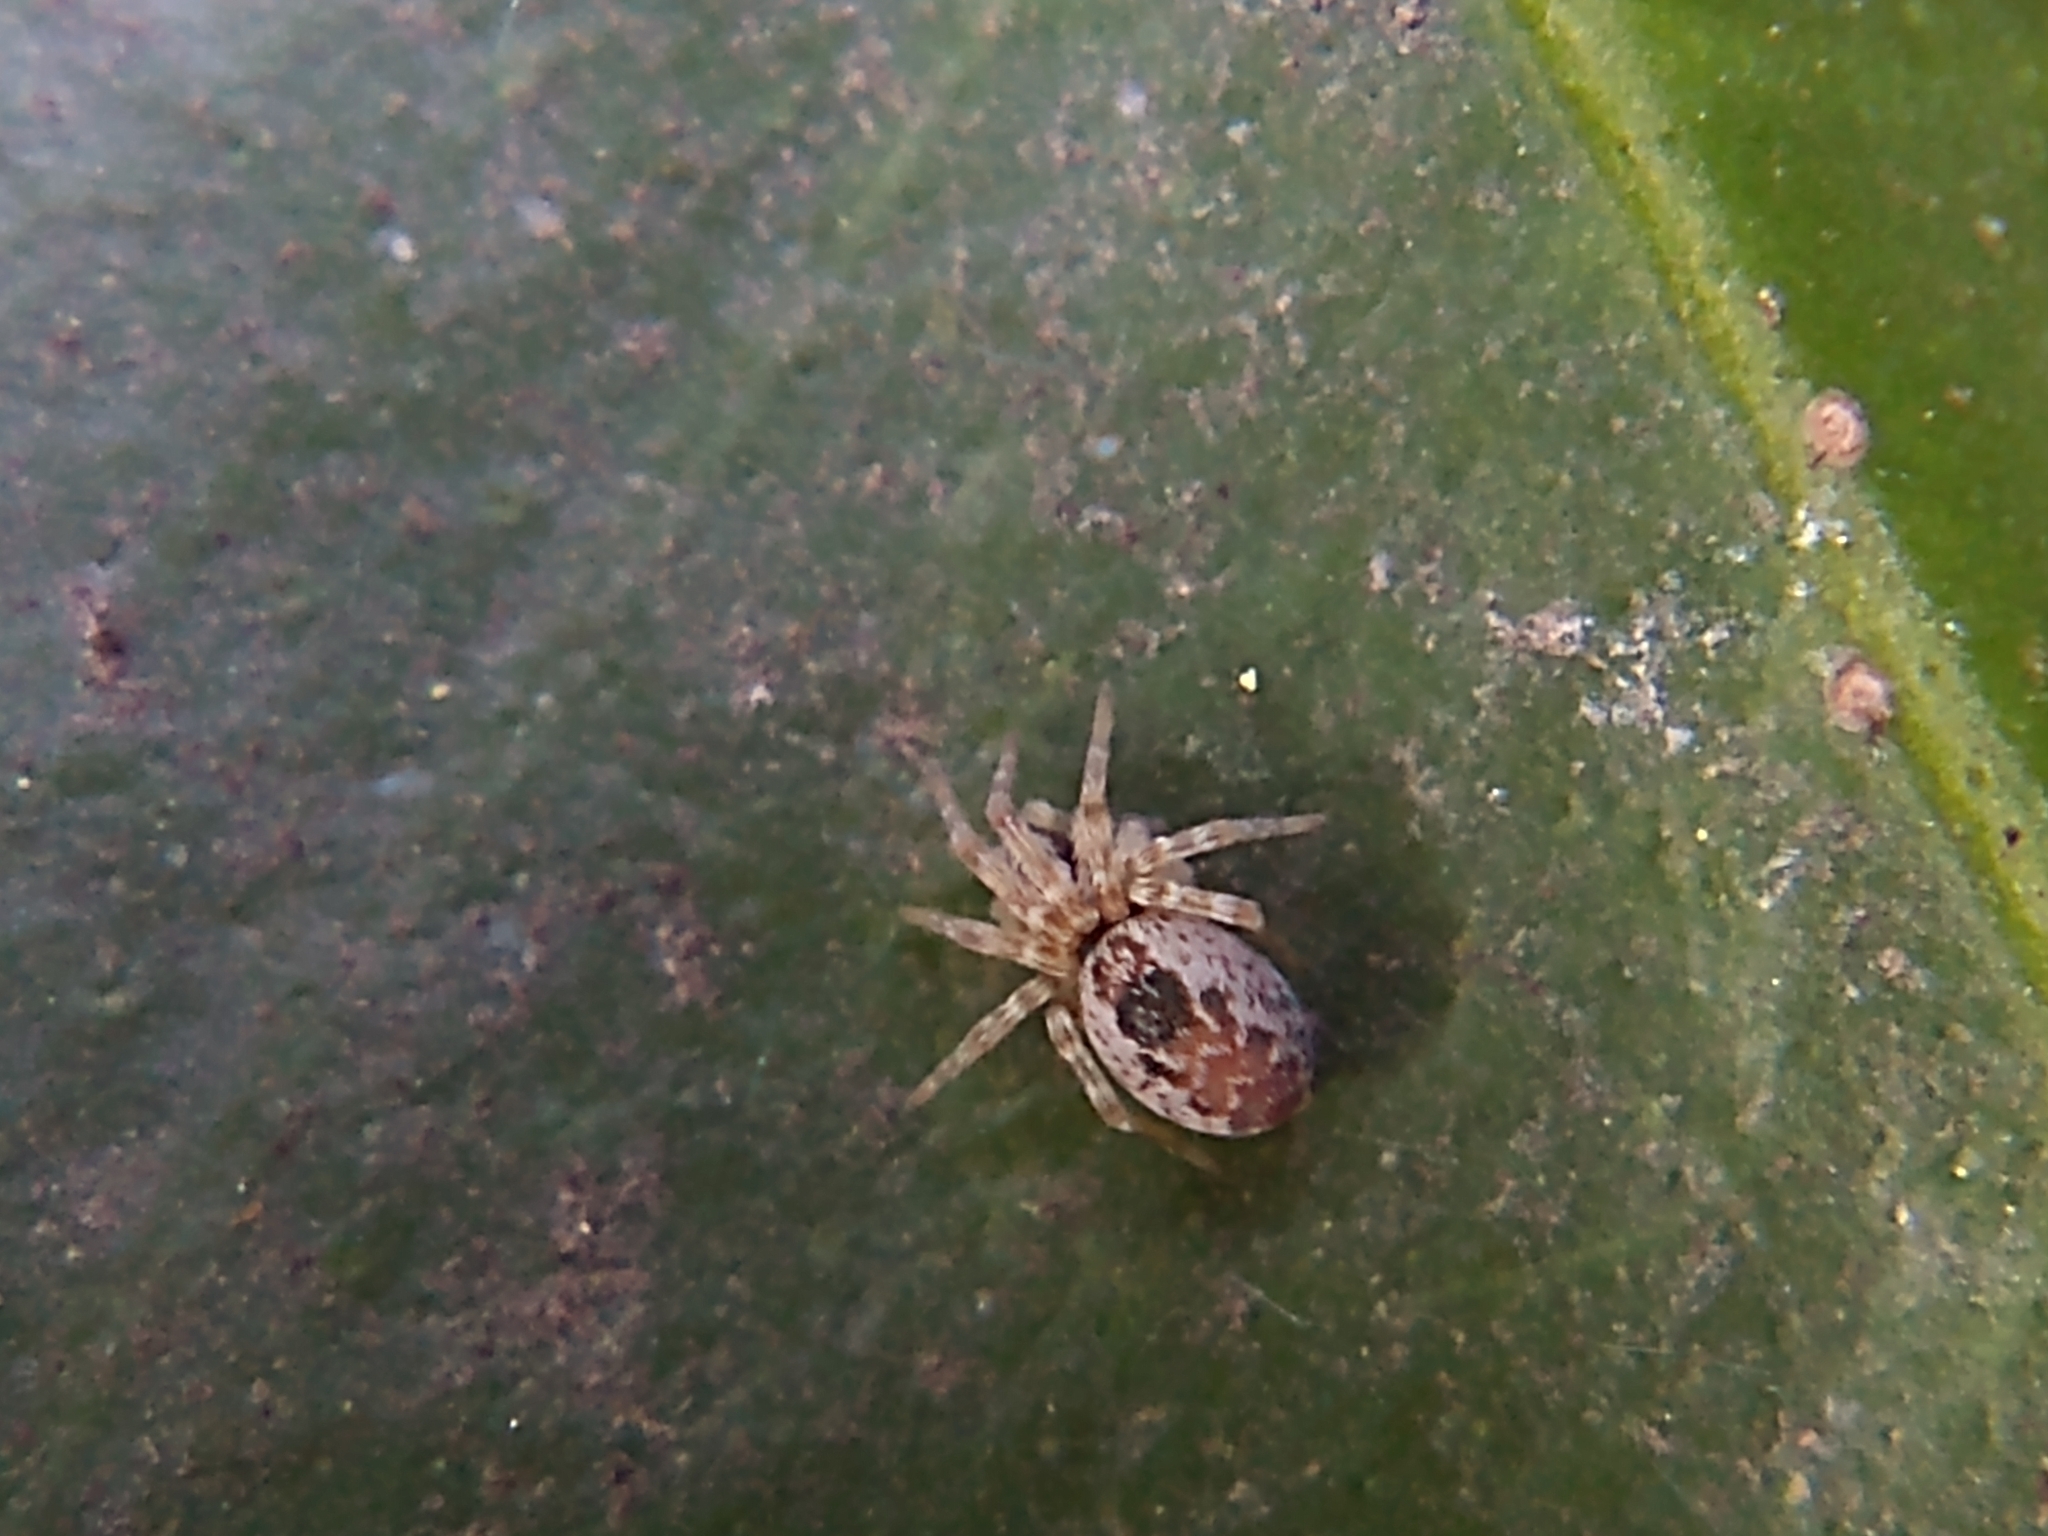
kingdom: Animalia
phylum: Arthropoda
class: Arachnida
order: Araneae
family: Dictynidae
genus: Mallos
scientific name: Mallos
